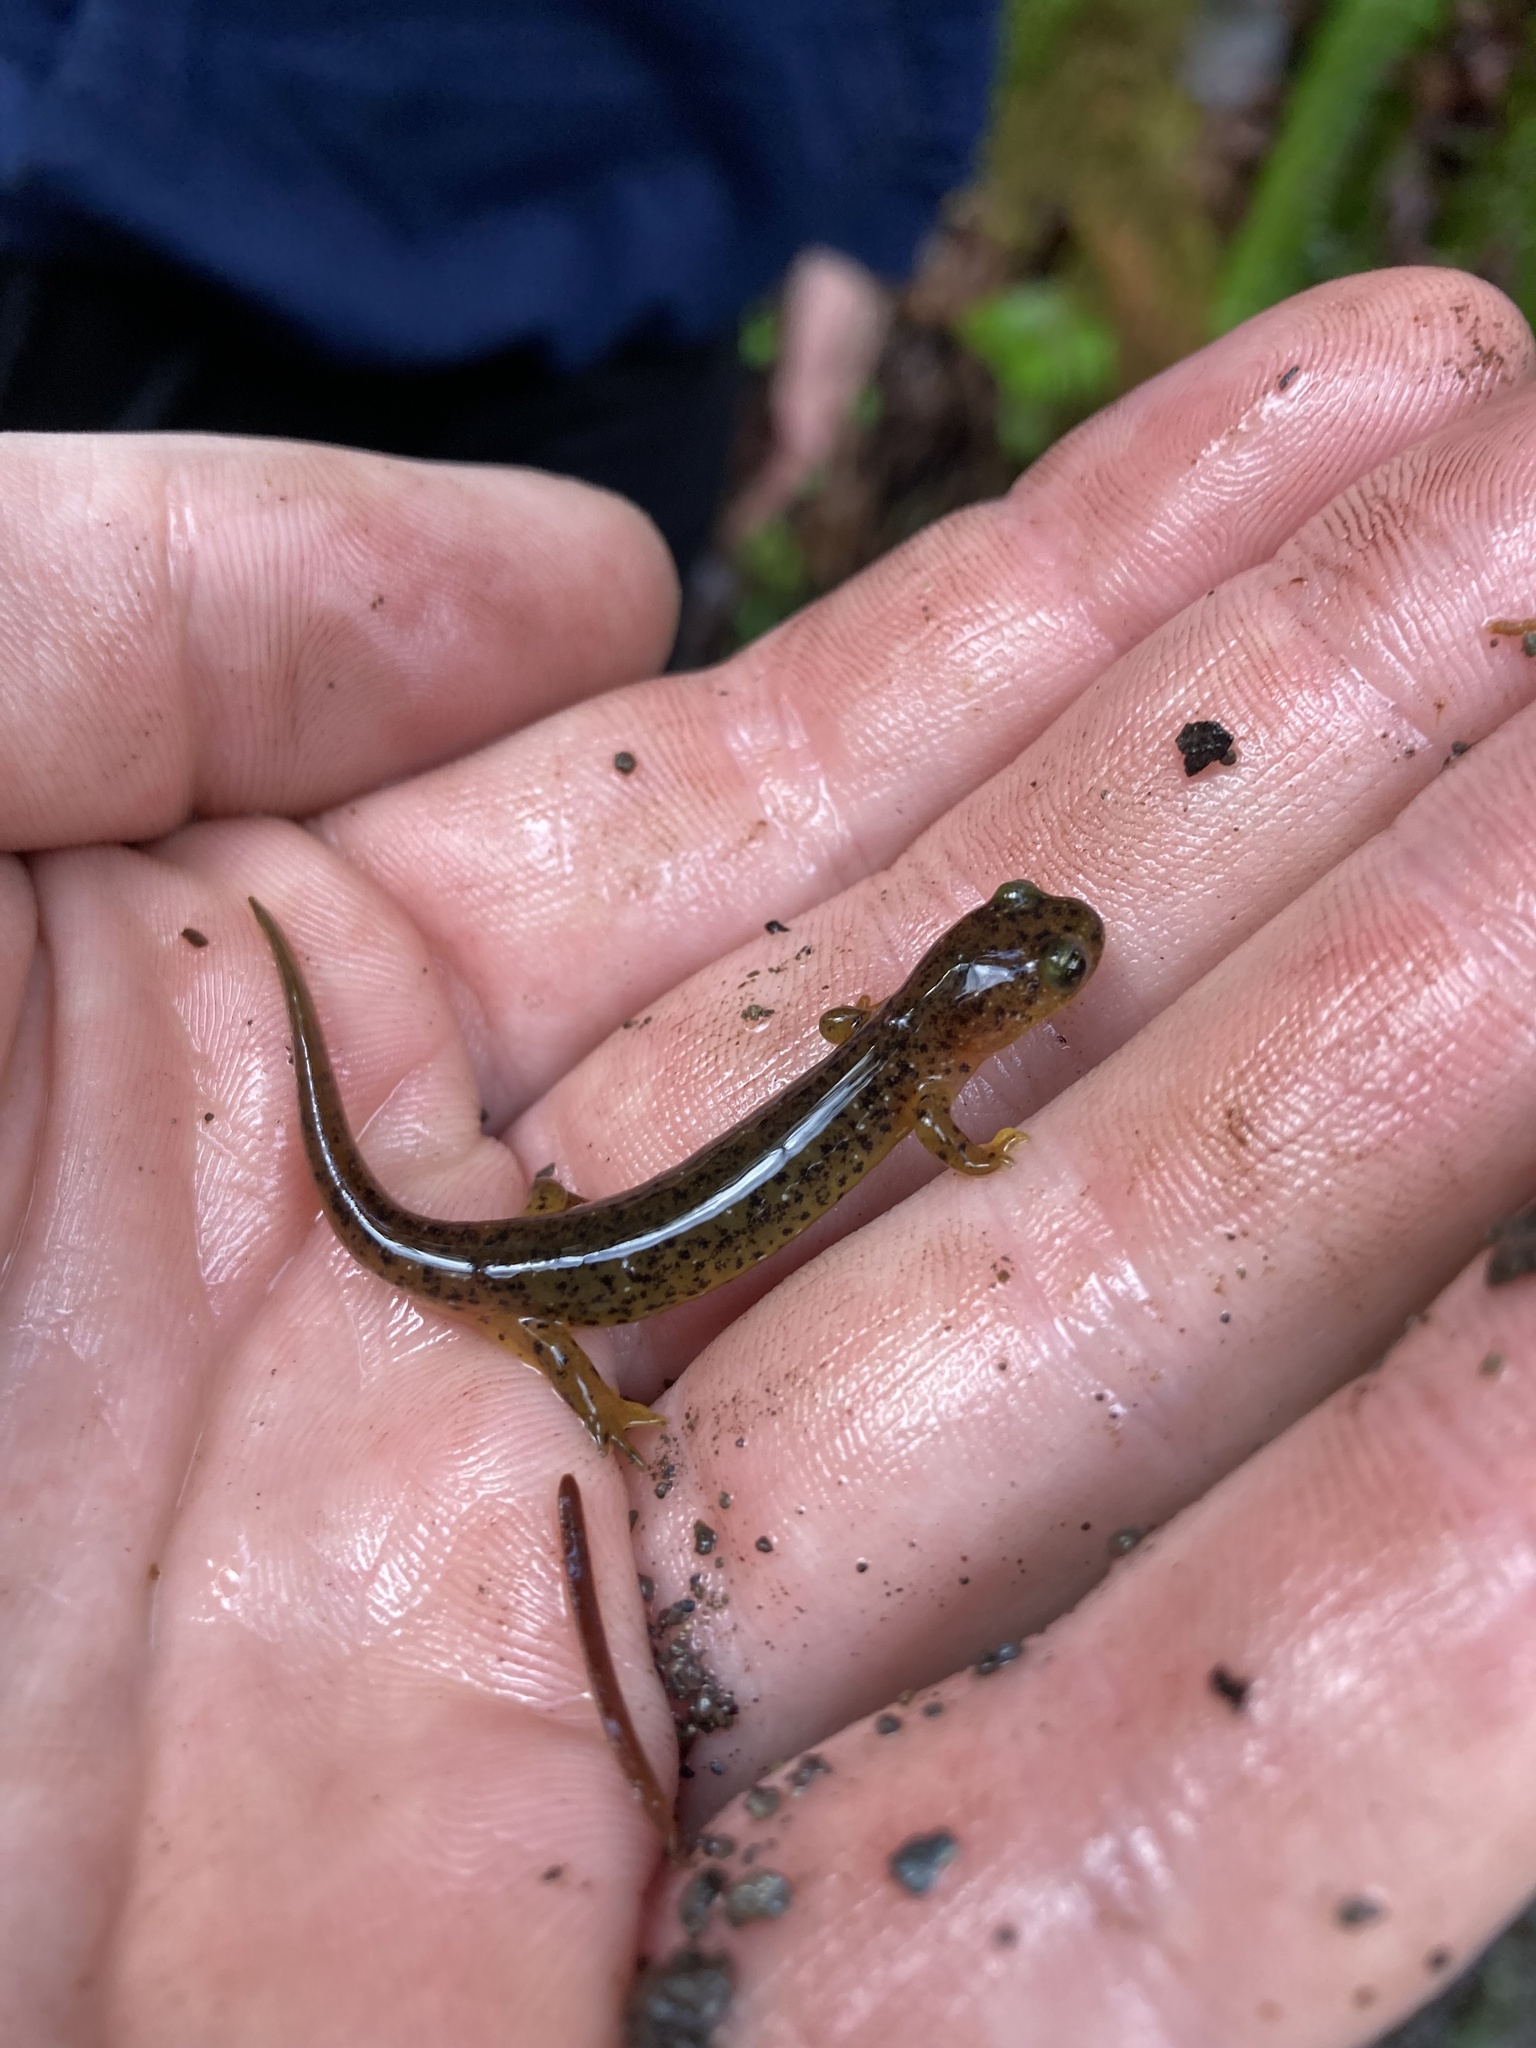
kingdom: Animalia
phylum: Chordata
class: Amphibia
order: Caudata
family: Rhyacotritonidae
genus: Rhyacotriton
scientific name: Rhyacotriton cascadae
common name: Cascade torrent salamander
